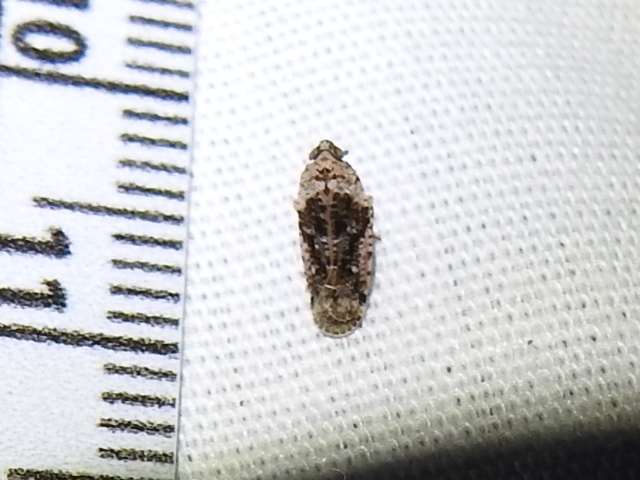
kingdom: Animalia
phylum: Arthropoda
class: Insecta
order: Hemiptera
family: Achilidae
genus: Catonia
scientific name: Catonia nava
